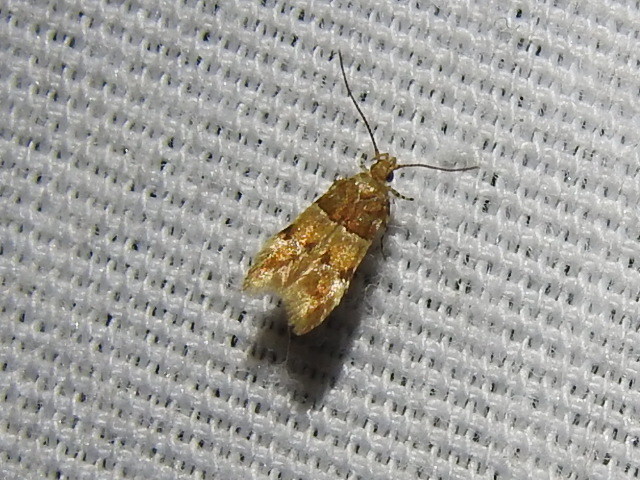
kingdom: Animalia
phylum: Arthropoda
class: Insecta
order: Lepidoptera
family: Gelechiidae
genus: Theisoa
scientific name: Theisoa constrictella
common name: Constricted twirler
